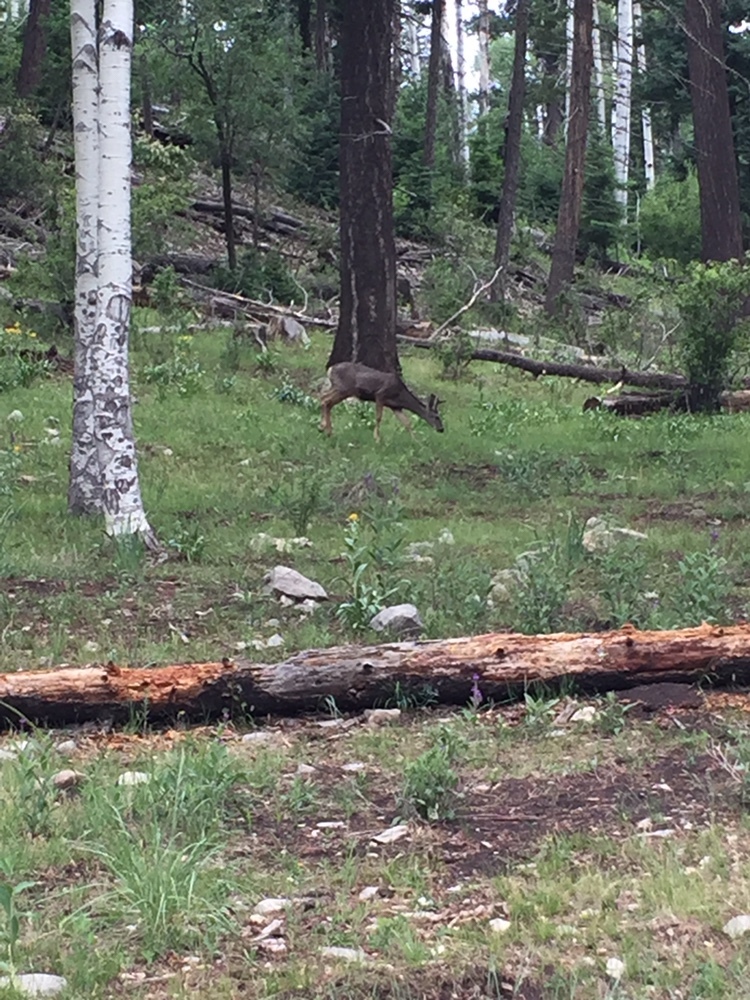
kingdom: Animalia
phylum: Chordata
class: Mammalia
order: Artiodactyla
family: Cervidae
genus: Odocoileus
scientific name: Odocoileus hemionus
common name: Mule deer
